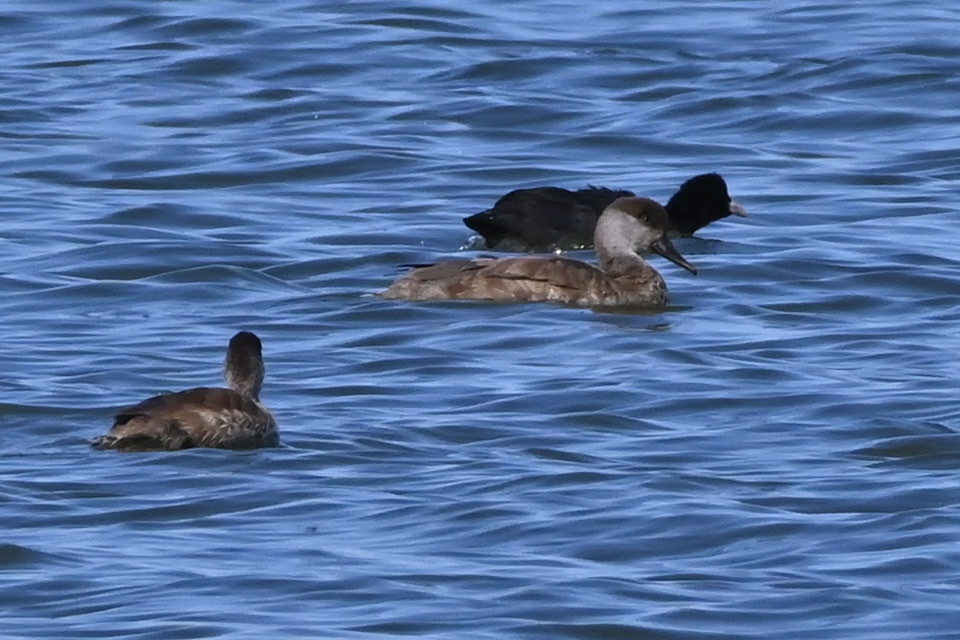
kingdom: Animalia
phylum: Chordata
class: Aves
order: Anseriformes
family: Anatidae
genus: Netta
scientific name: Netta rufina
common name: Red-crested pochard
